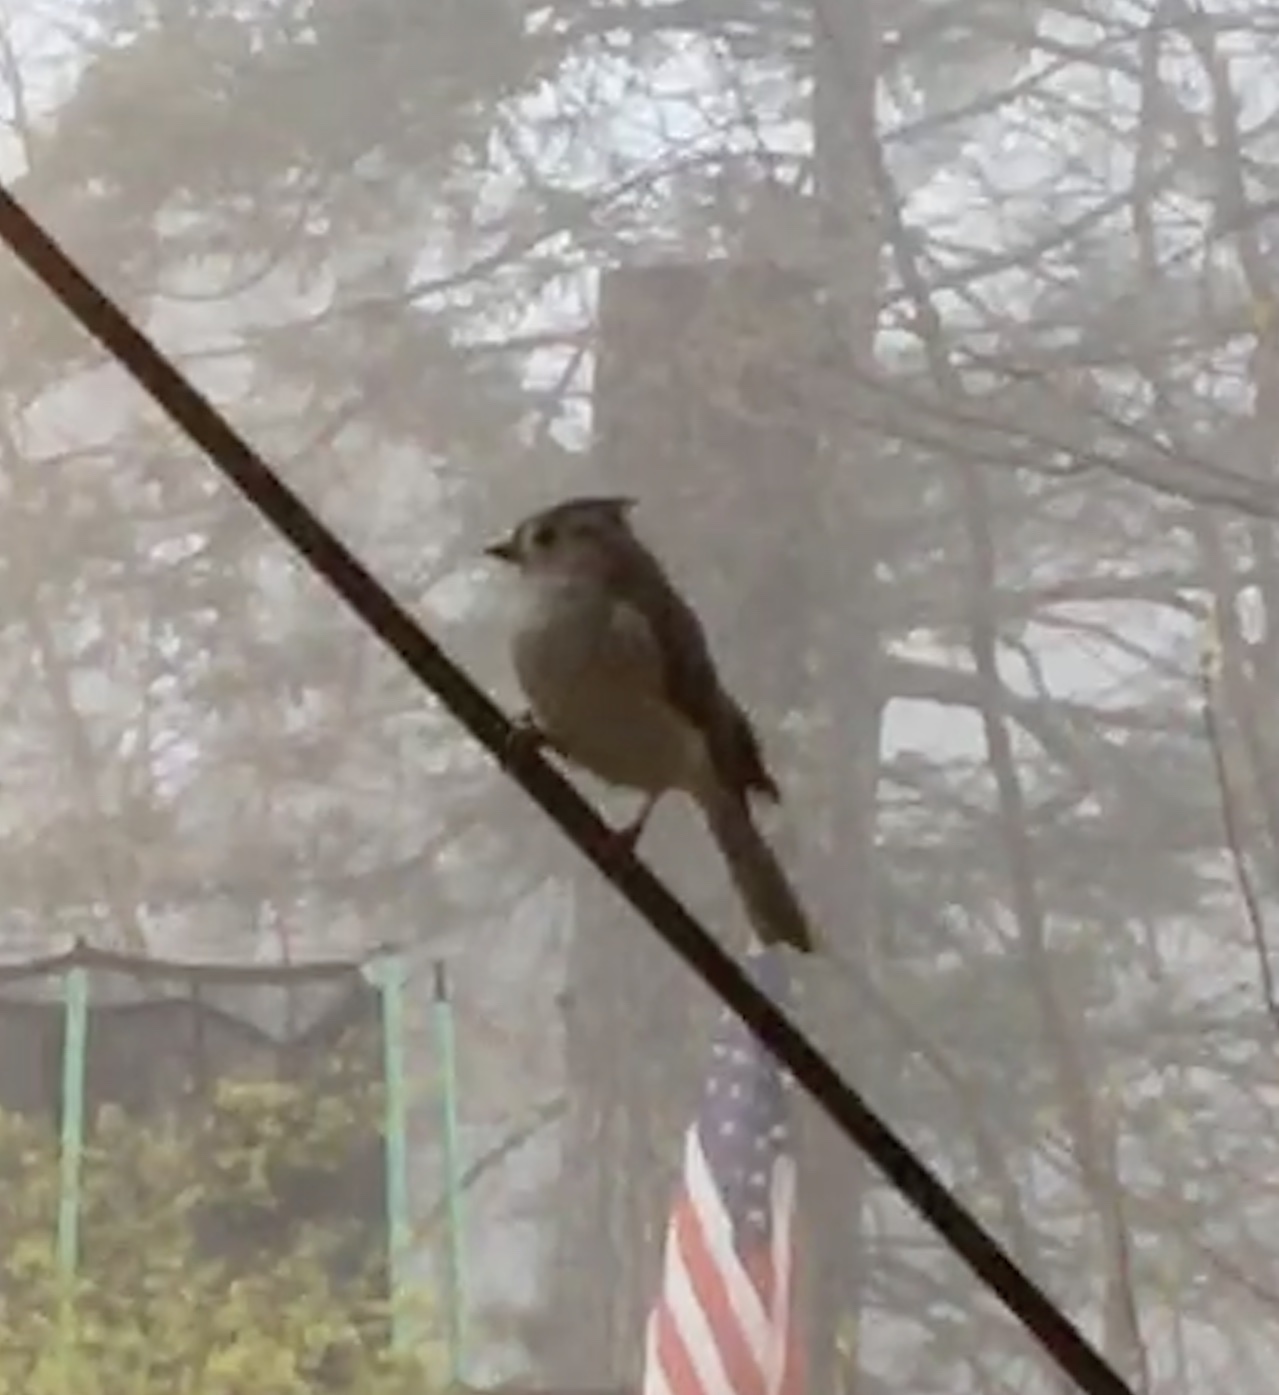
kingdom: Animalia
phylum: Chordata
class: Aves
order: Passeriformes
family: Paridae
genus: Baeolophus
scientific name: Baeolophus bicolor
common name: Tufted titmouse
